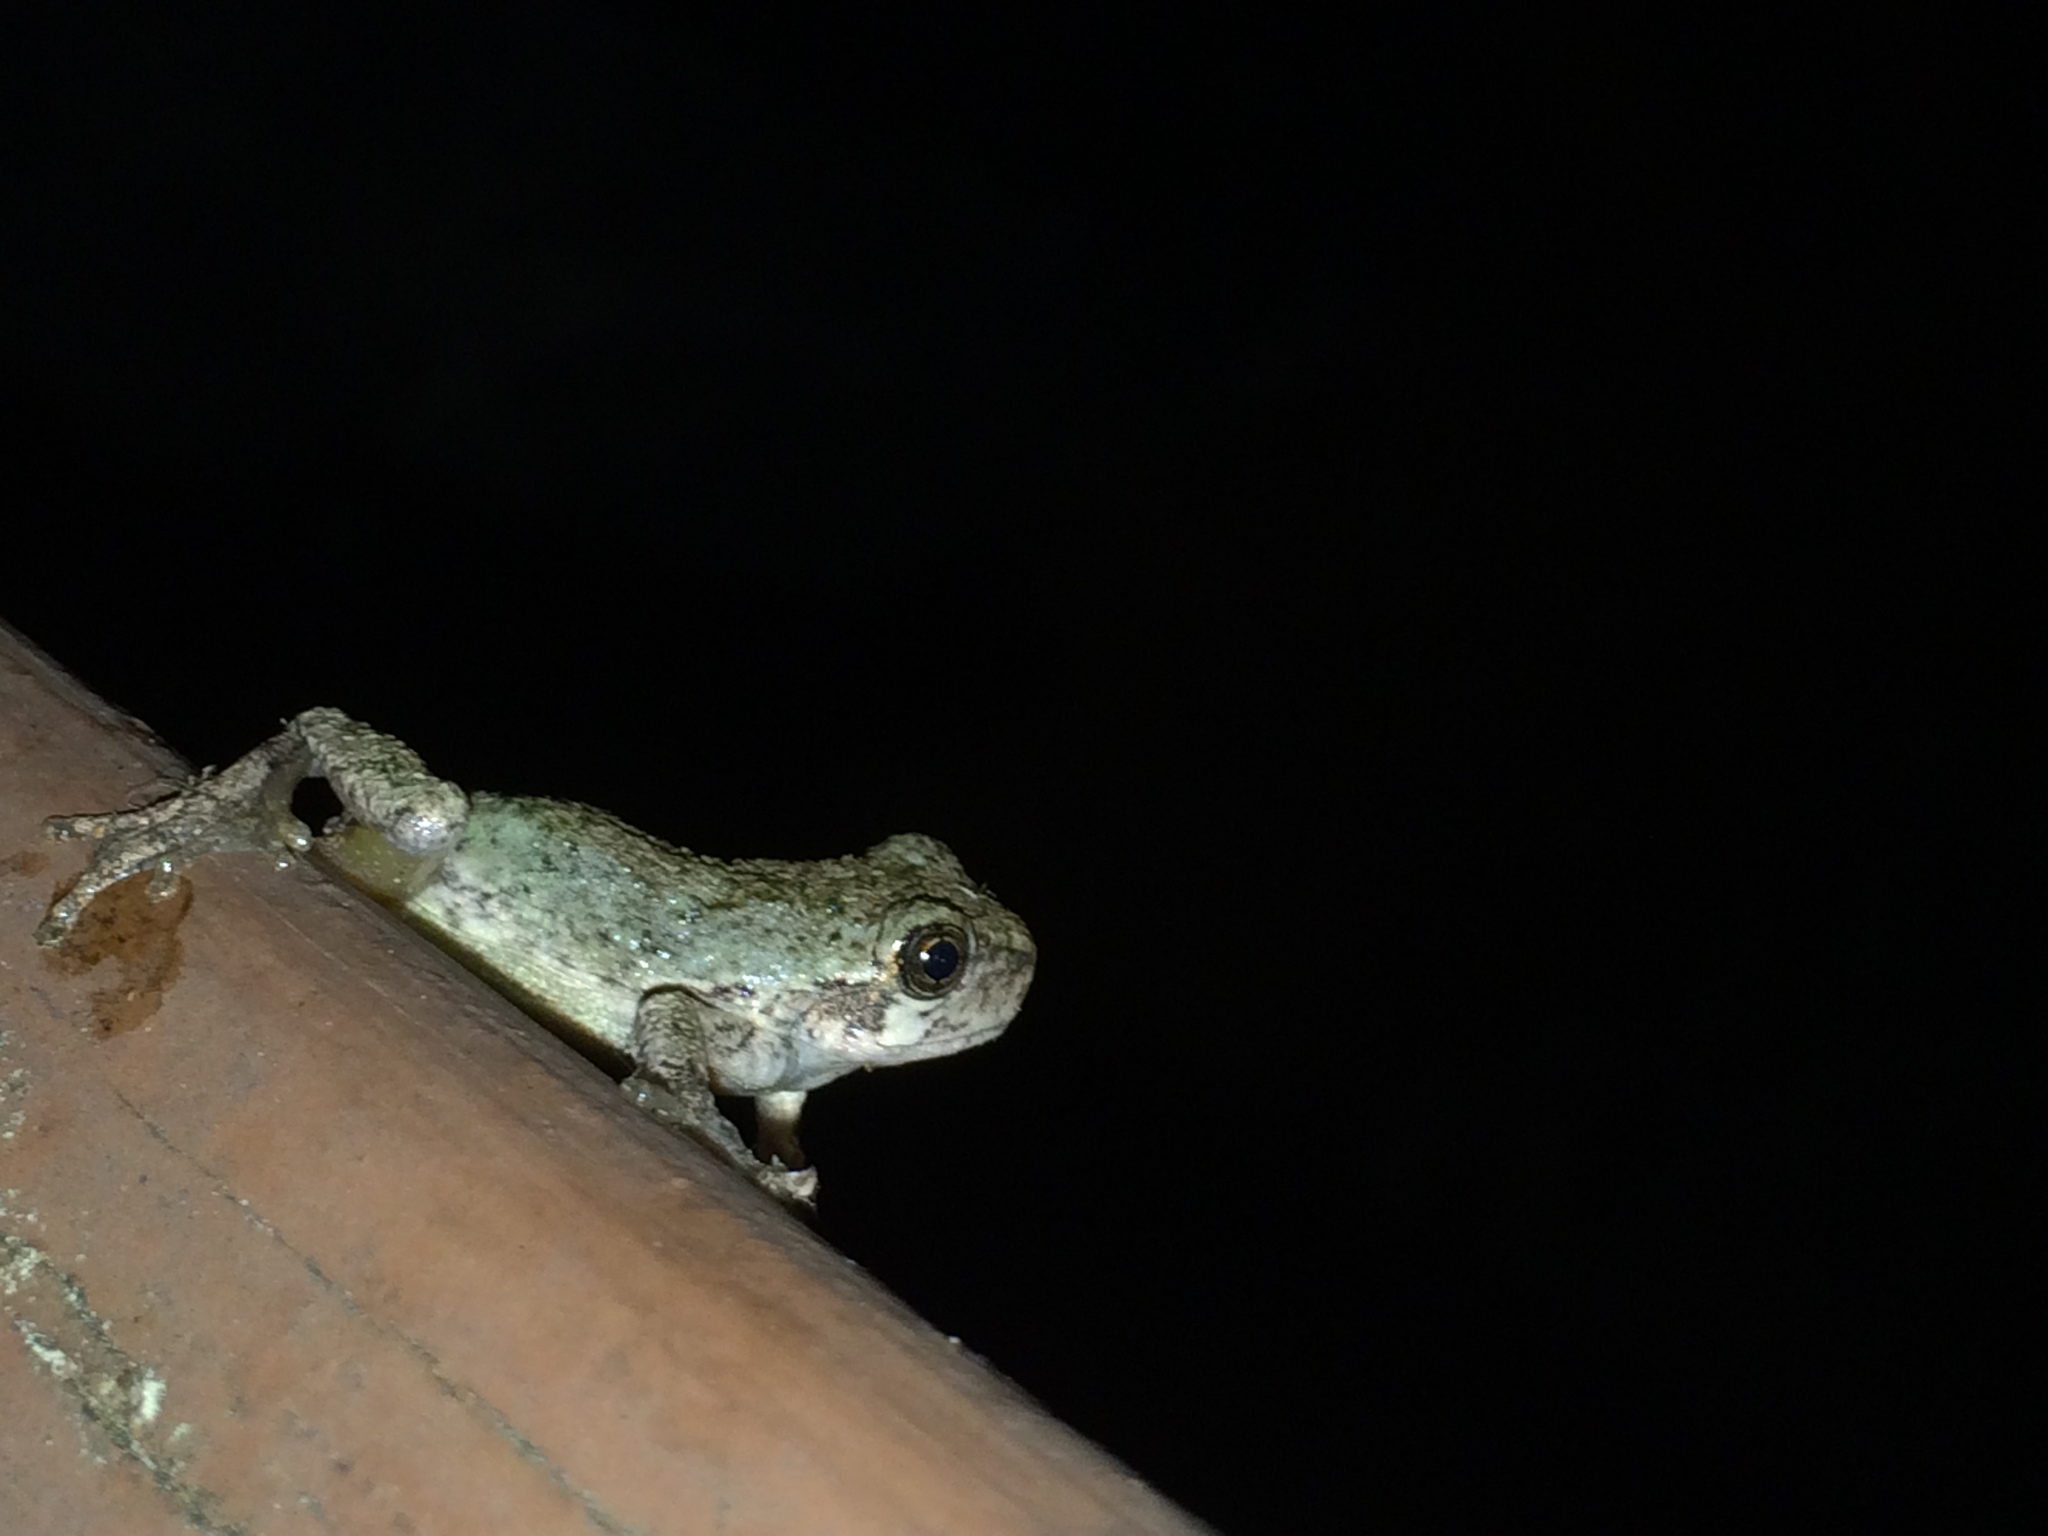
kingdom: Animalia
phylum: Chordata
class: Amphibia
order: Anura
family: Hylidae
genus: Dryophytes
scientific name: Dryophytes versicolor
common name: Gray treefrog
